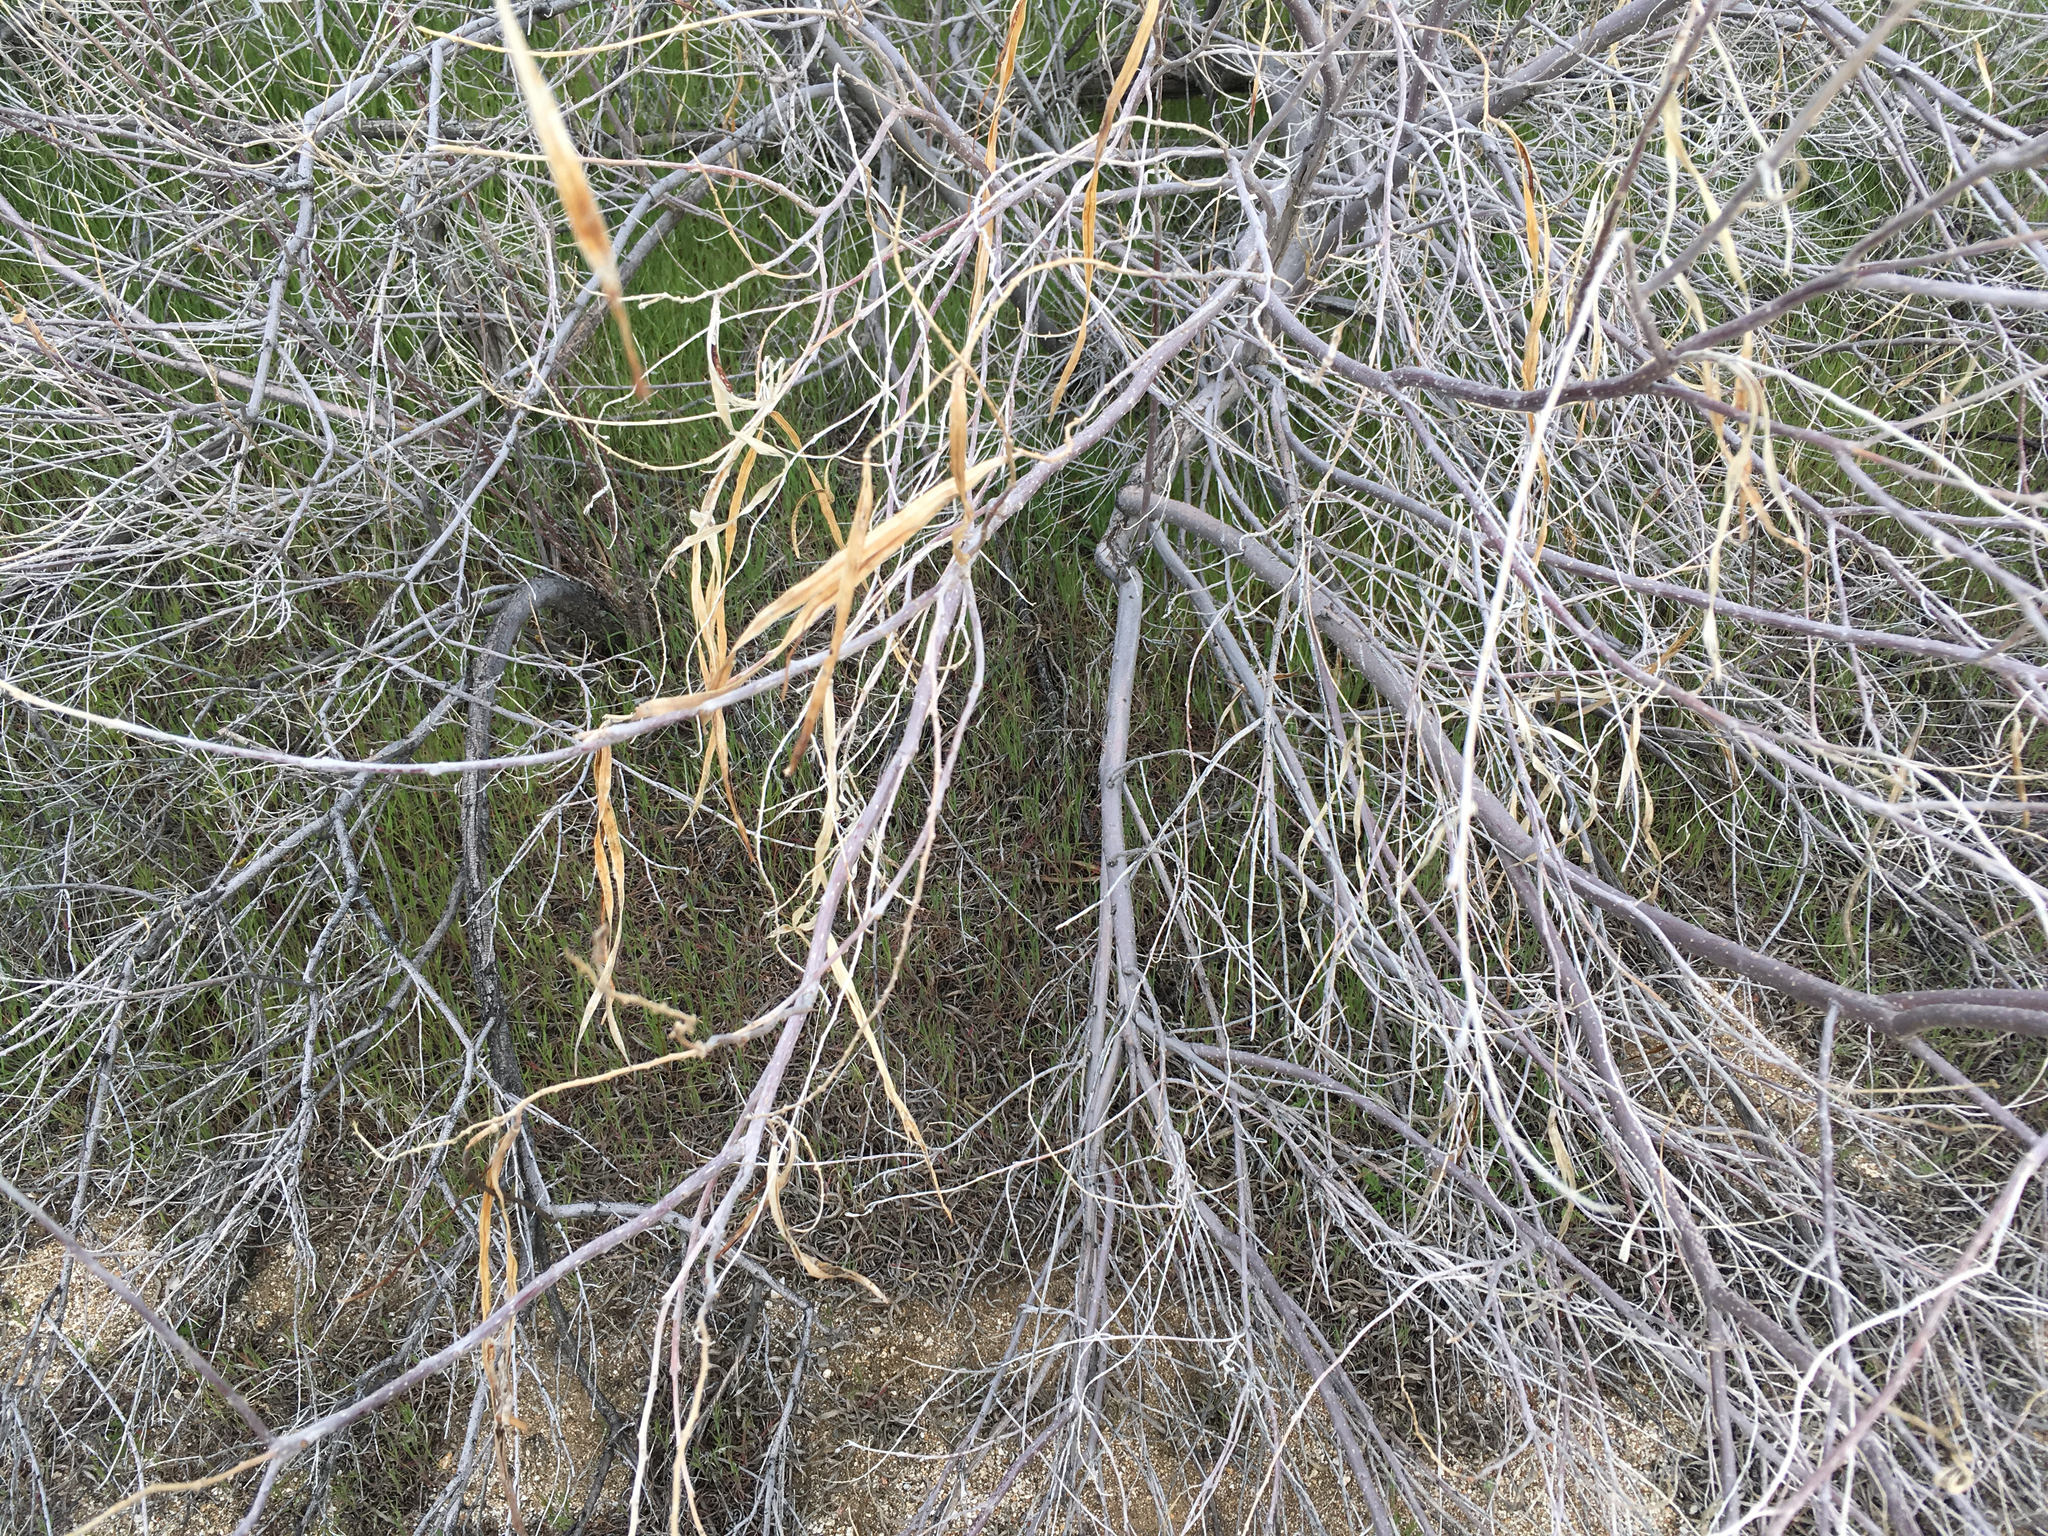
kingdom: Plantae
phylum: Tracheophyta
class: Magnoliopsida
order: Lamiales
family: Bignoniaceae
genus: Chilopsis
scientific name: Chilopsis linearis
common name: Desert-willow
